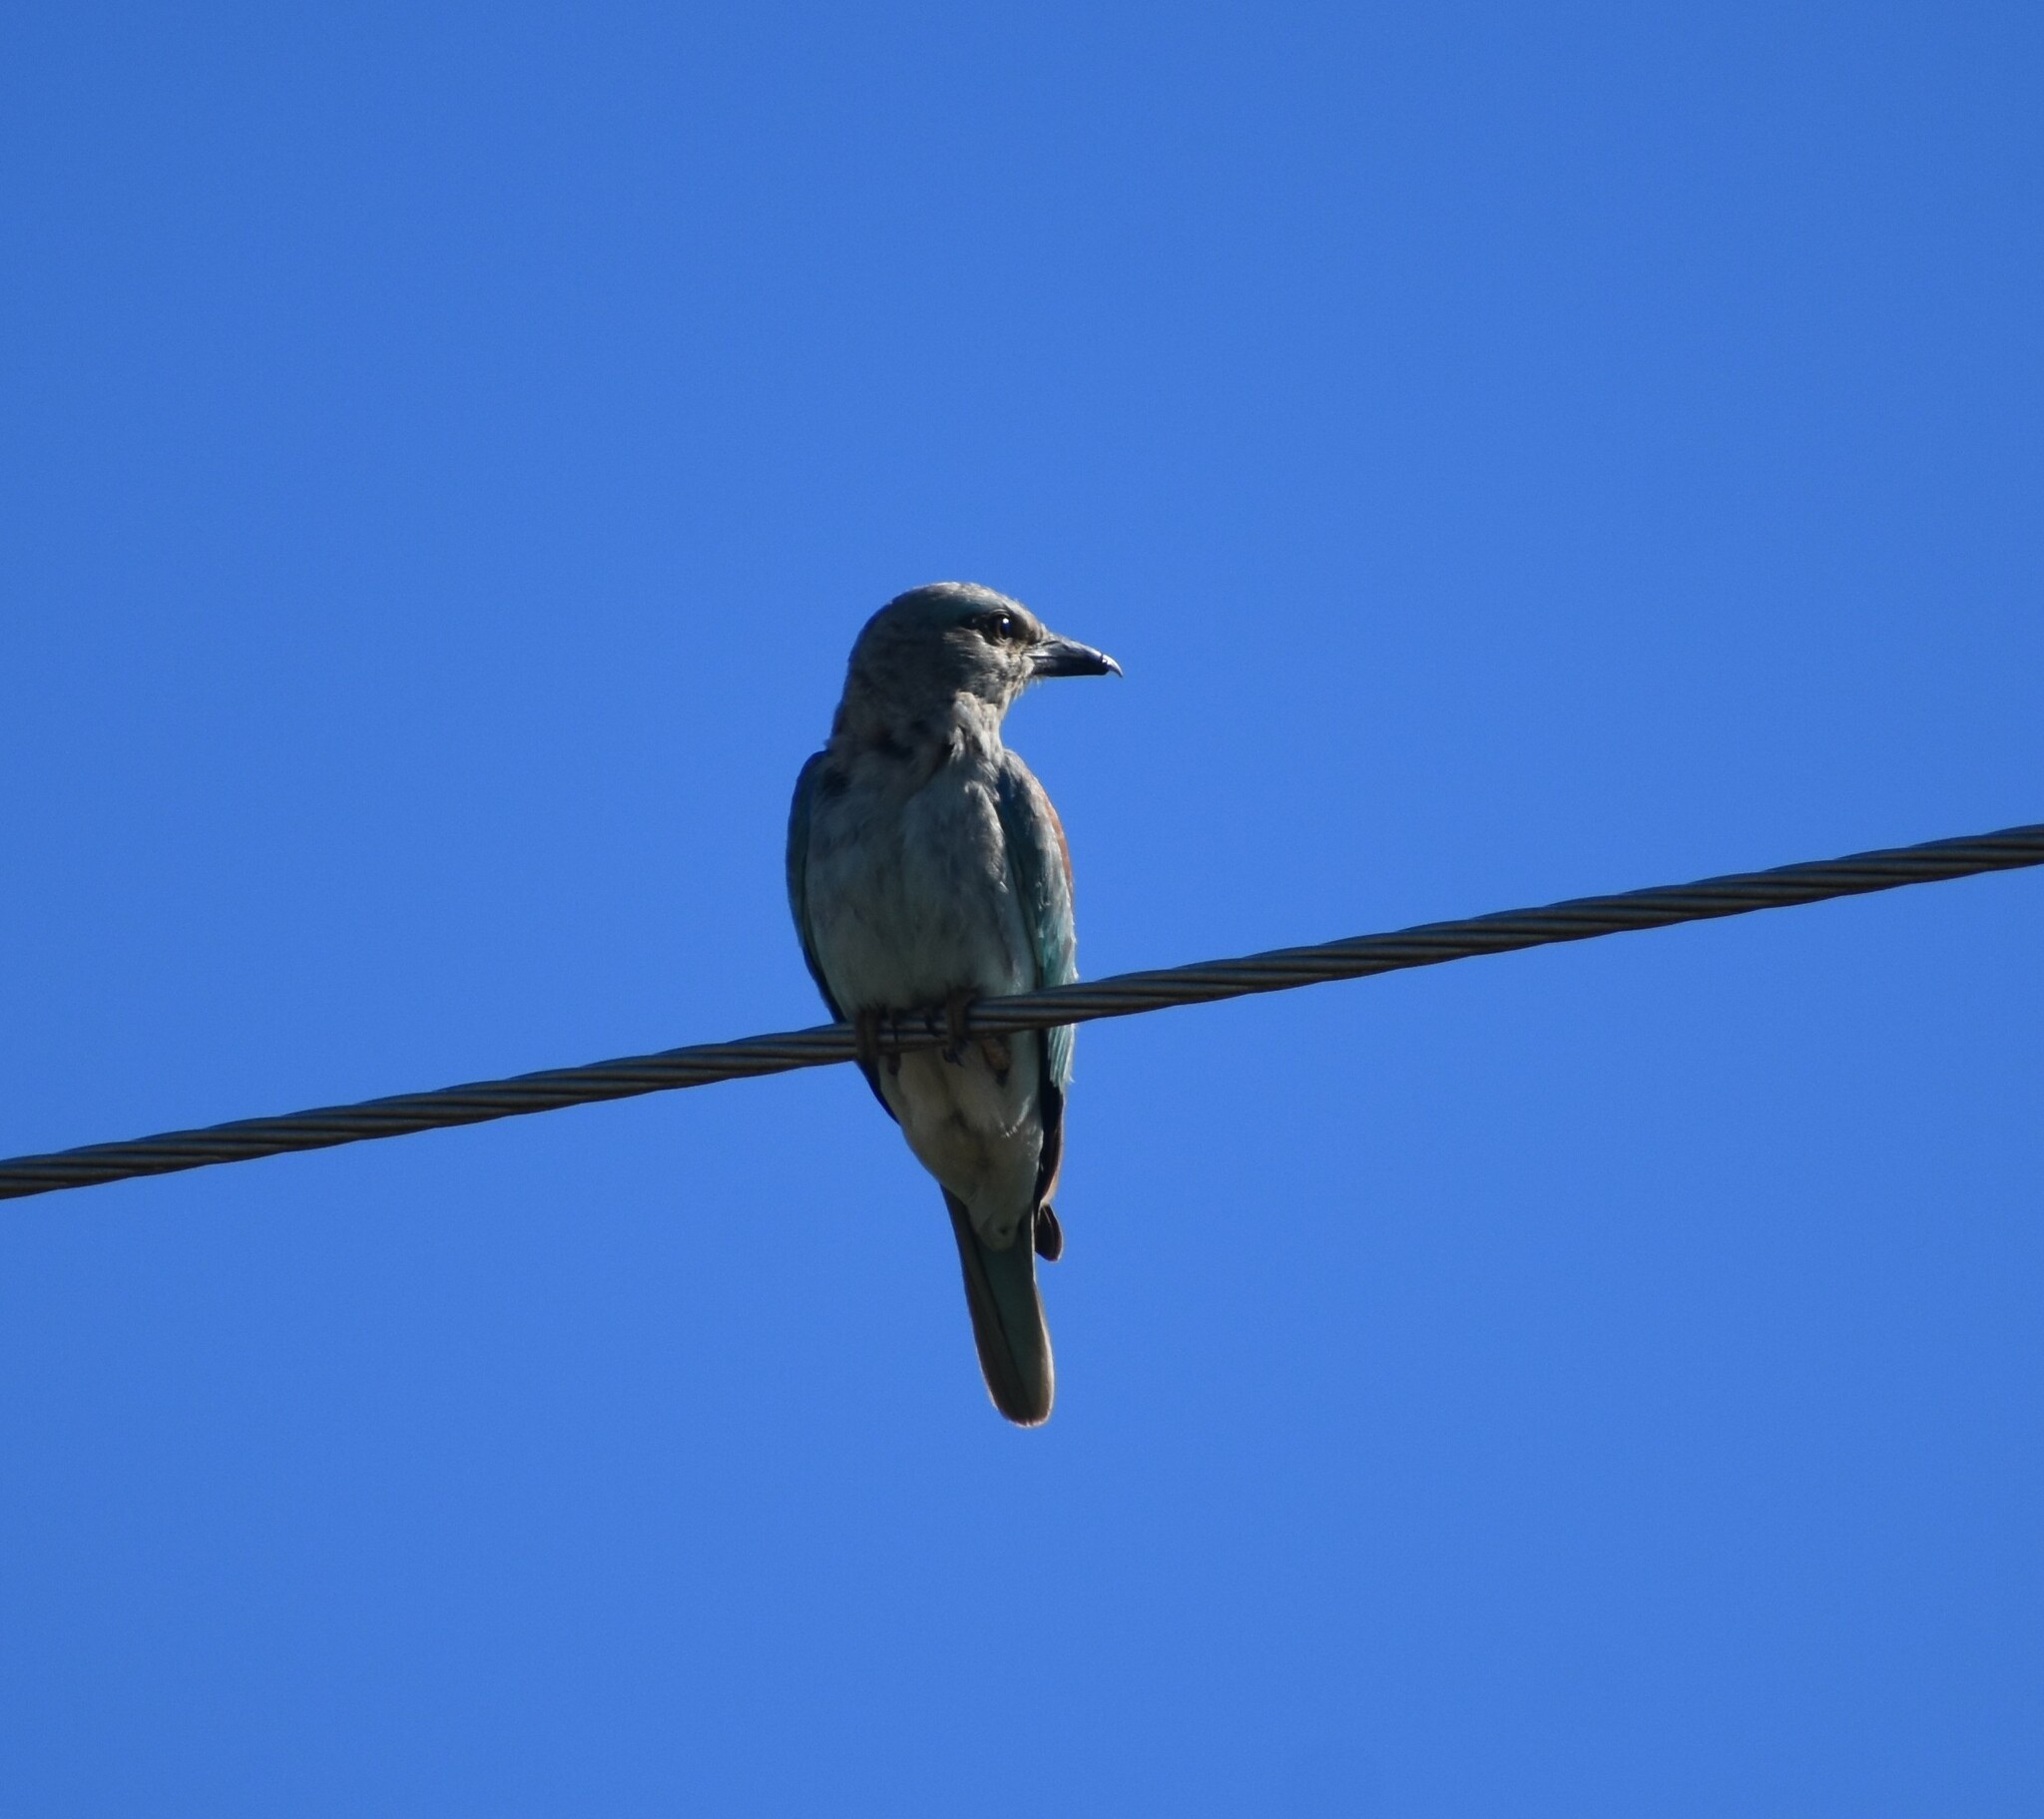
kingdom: Animalia
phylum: Chordata
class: Aves
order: Coraciiformes
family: Coraciidae
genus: Coracias
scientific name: Coracias garrulus
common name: European roller
